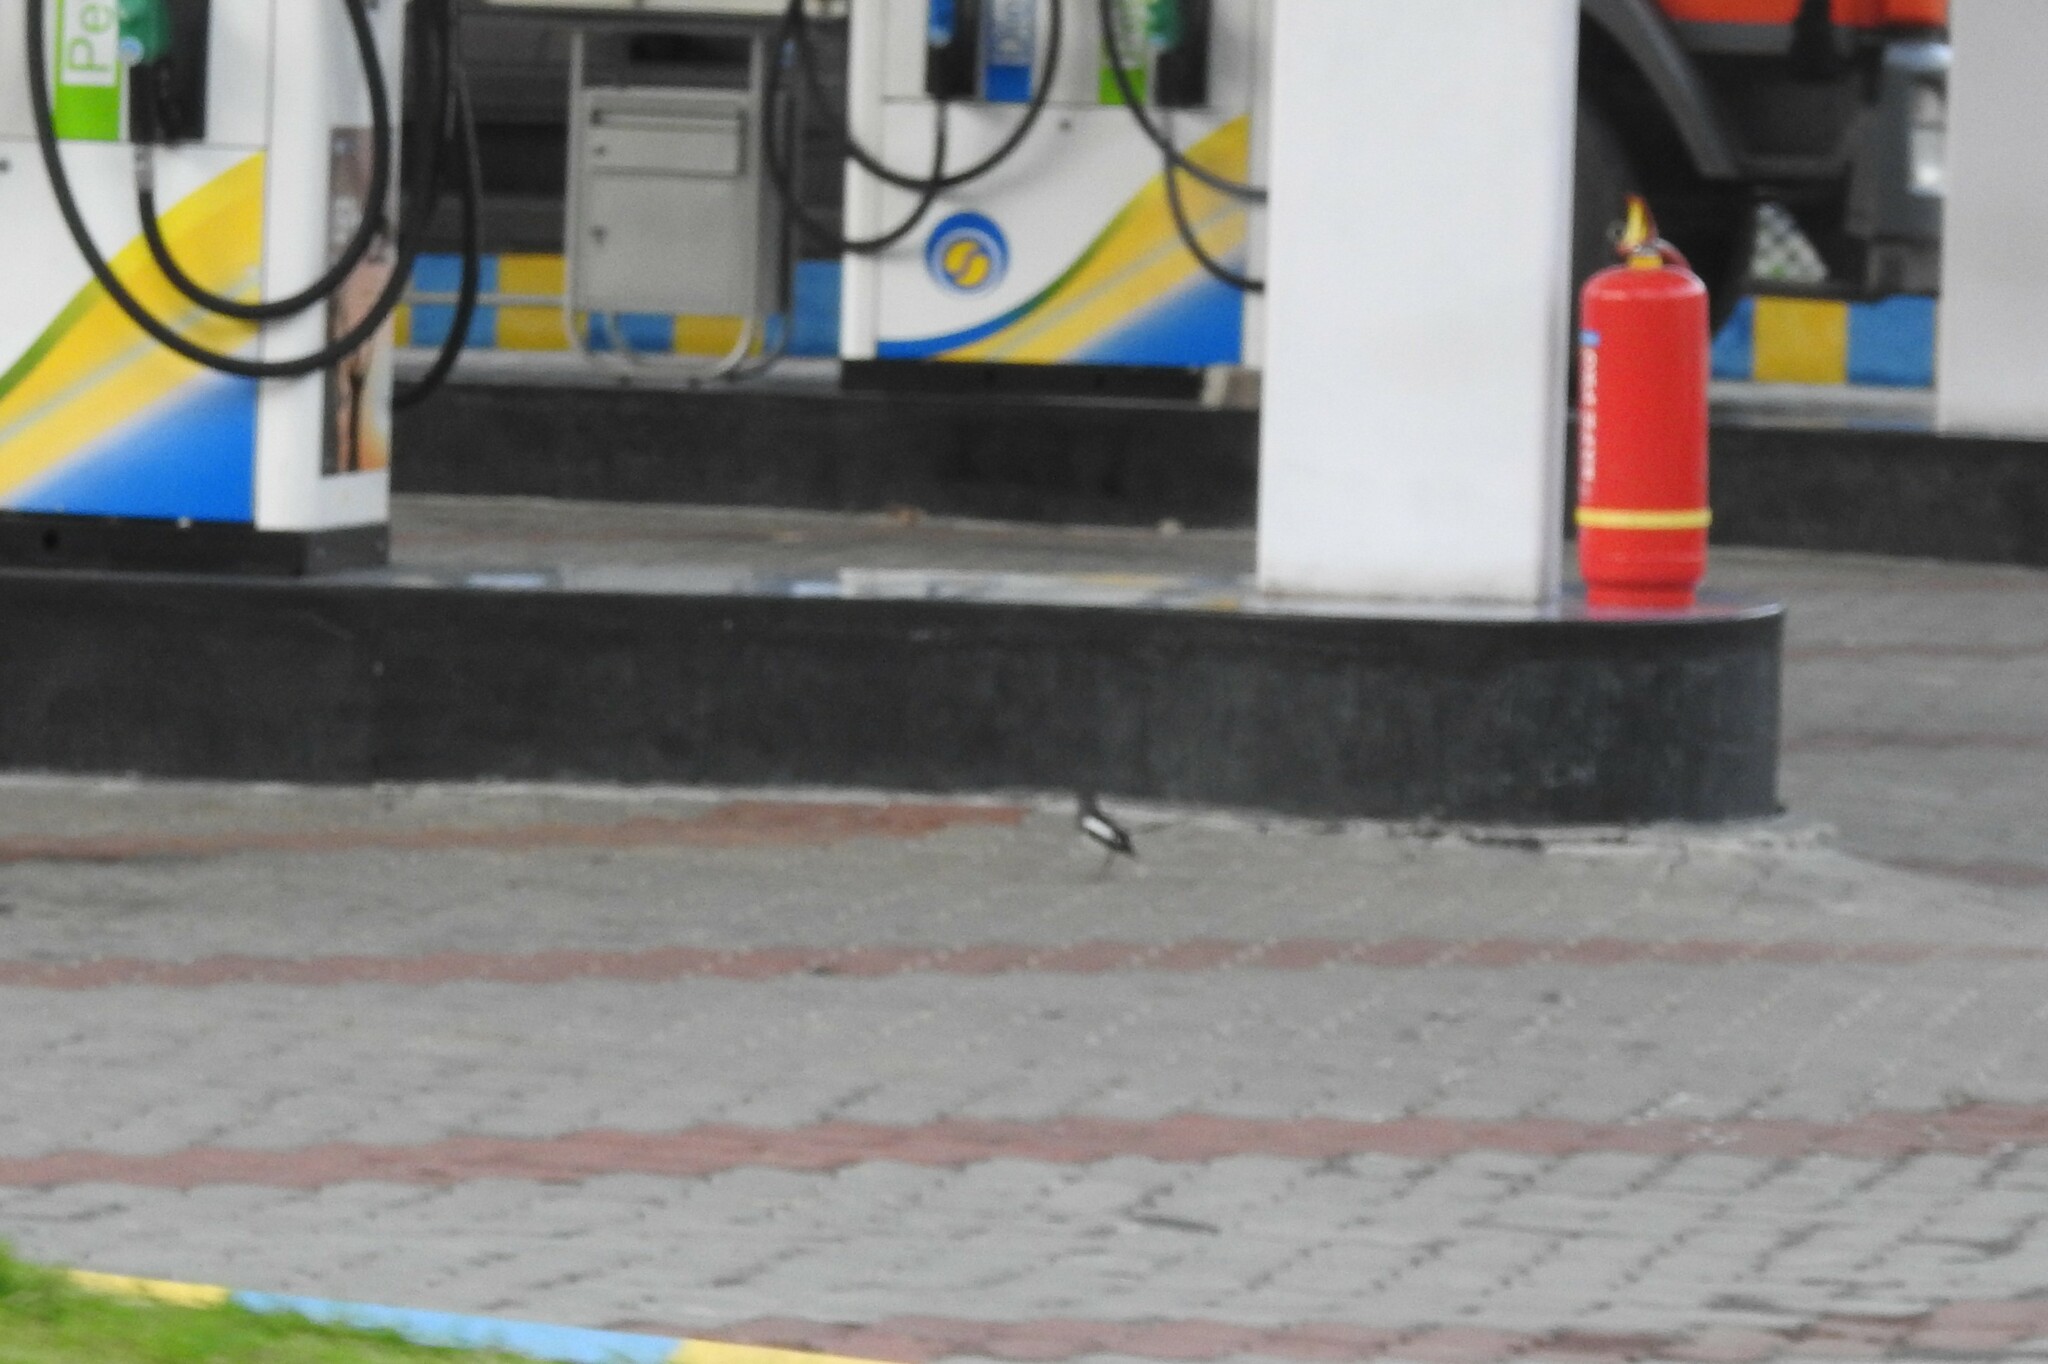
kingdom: Animalia
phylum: Chordata
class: Aves
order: Passeriformes
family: Muscicapidae
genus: Copsychus
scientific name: Copsychus saularis
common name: Oriental magpie-robin
